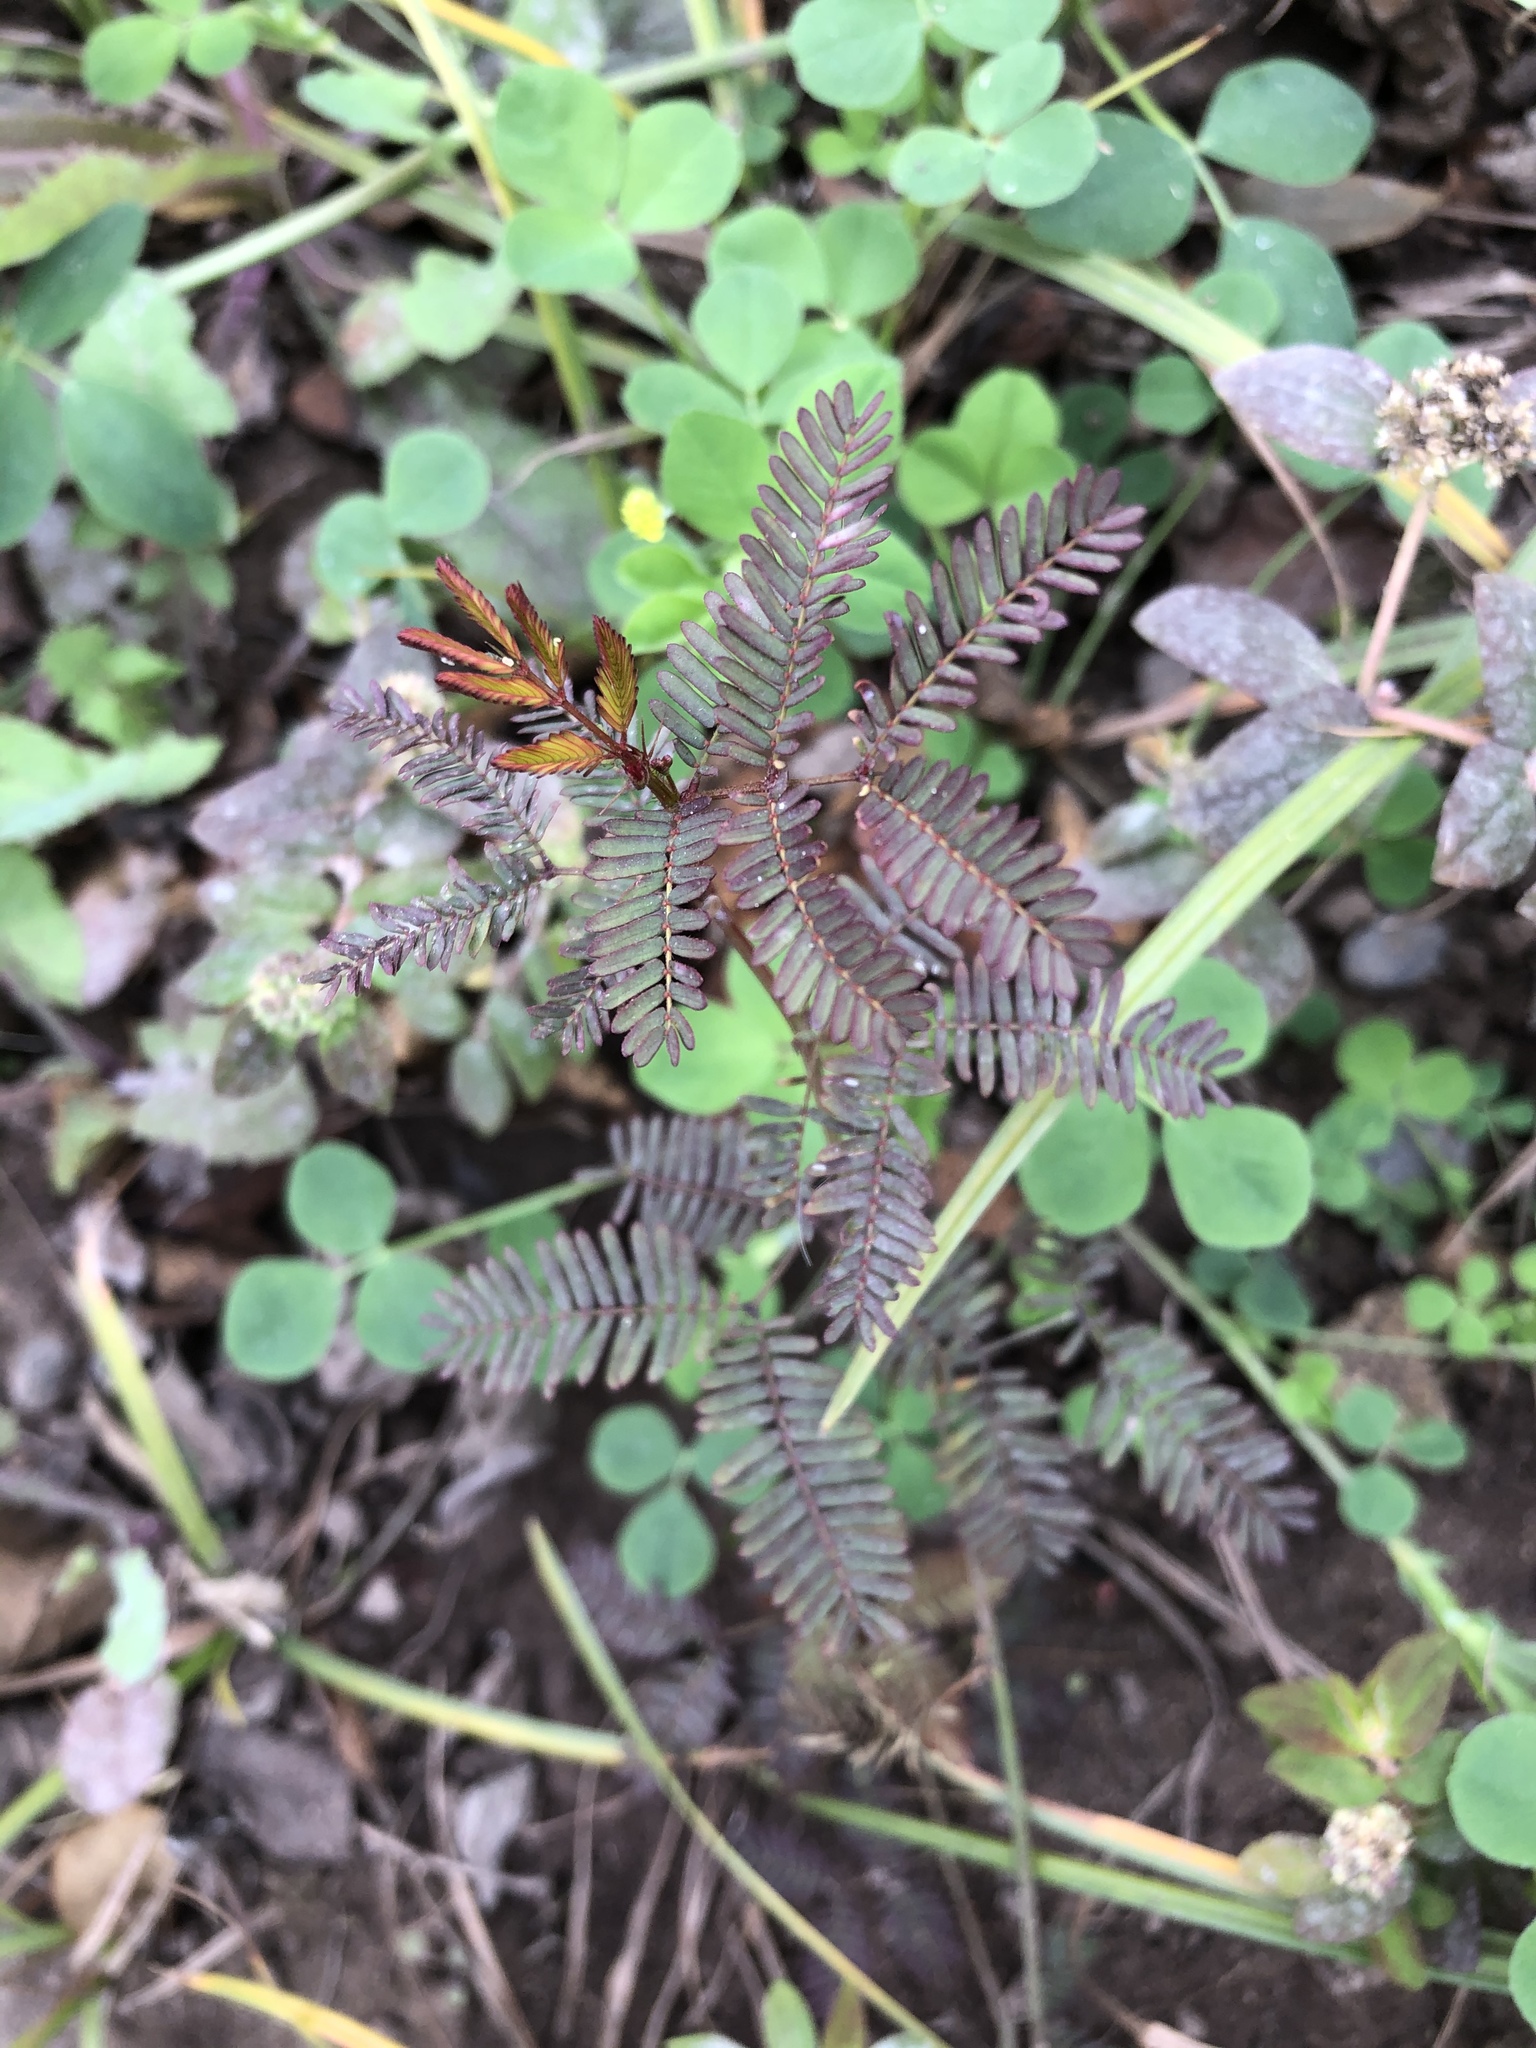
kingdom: Plantae
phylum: Tracheophyta
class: Magnoliopsida
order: Fabales
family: Fabaceae
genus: Desmanthus
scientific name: Desmanthus virgatus
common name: Wild tantan
